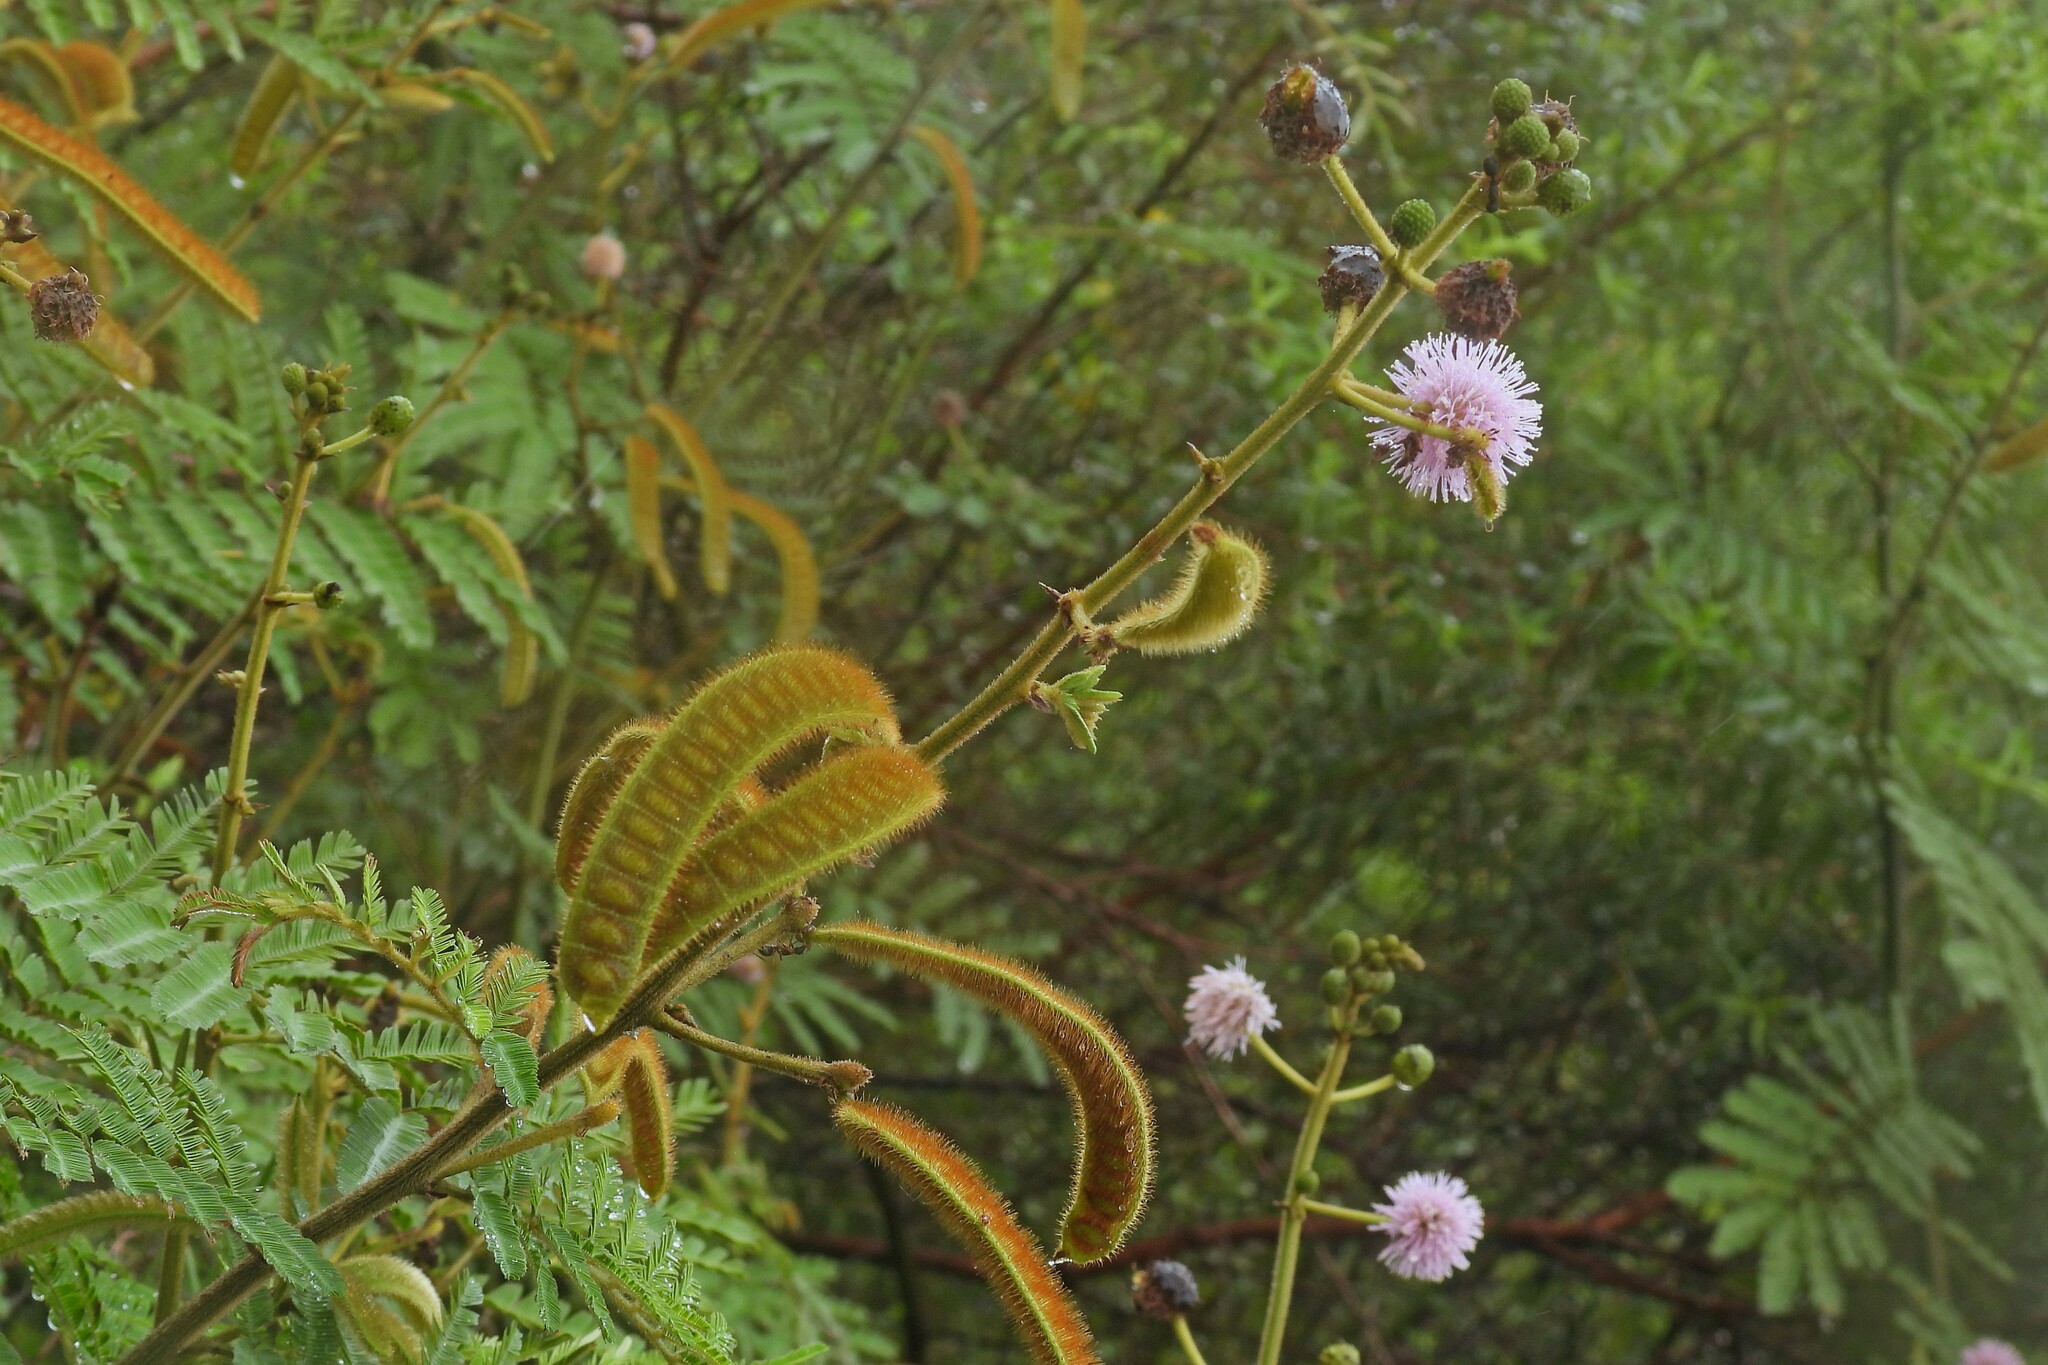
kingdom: Plantae
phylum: Tracheophyta
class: Magnoliopsida
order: Fabales
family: Fabaceae
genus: Mimosa
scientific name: Mimosa pigra
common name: Black mimosa
